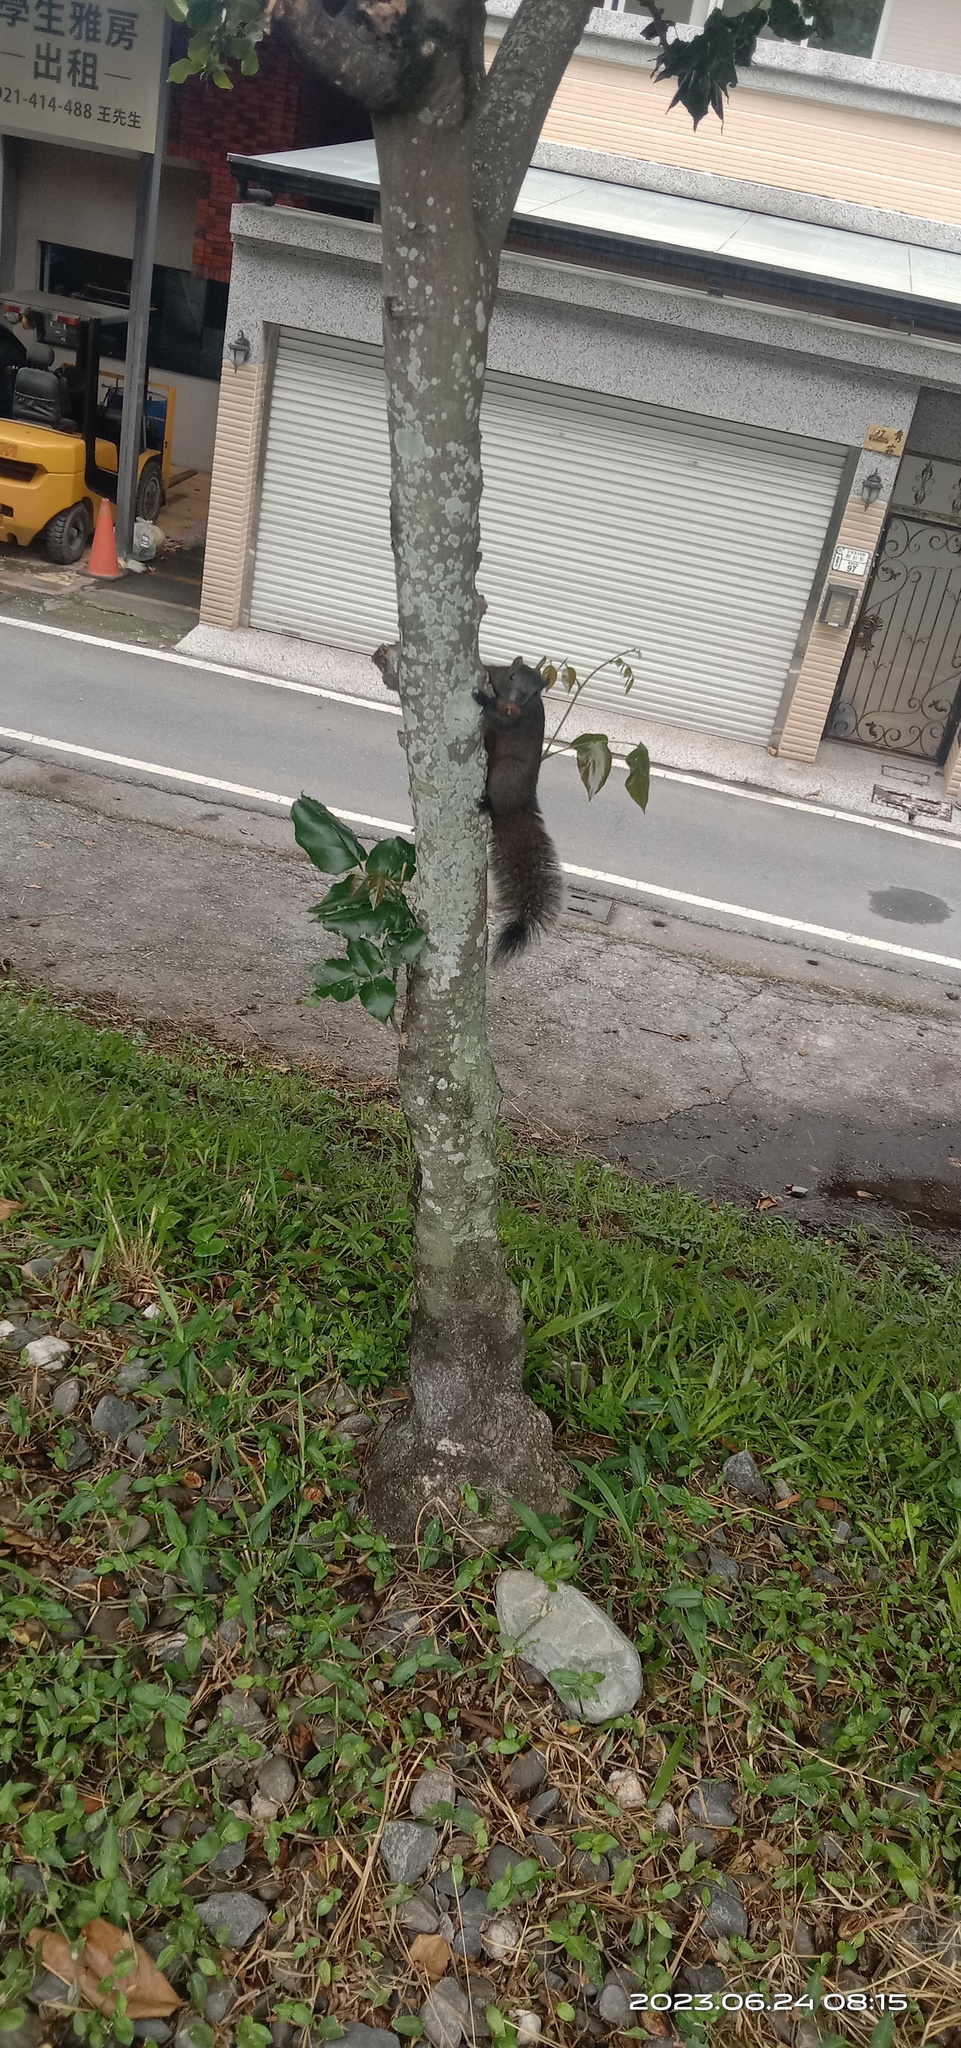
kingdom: Animalia
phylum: Chordata
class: Mammalia
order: Rodentia
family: Sciuridae
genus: Callosciurus
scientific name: Callosciurus erythraeus
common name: Pallas's squirrel
